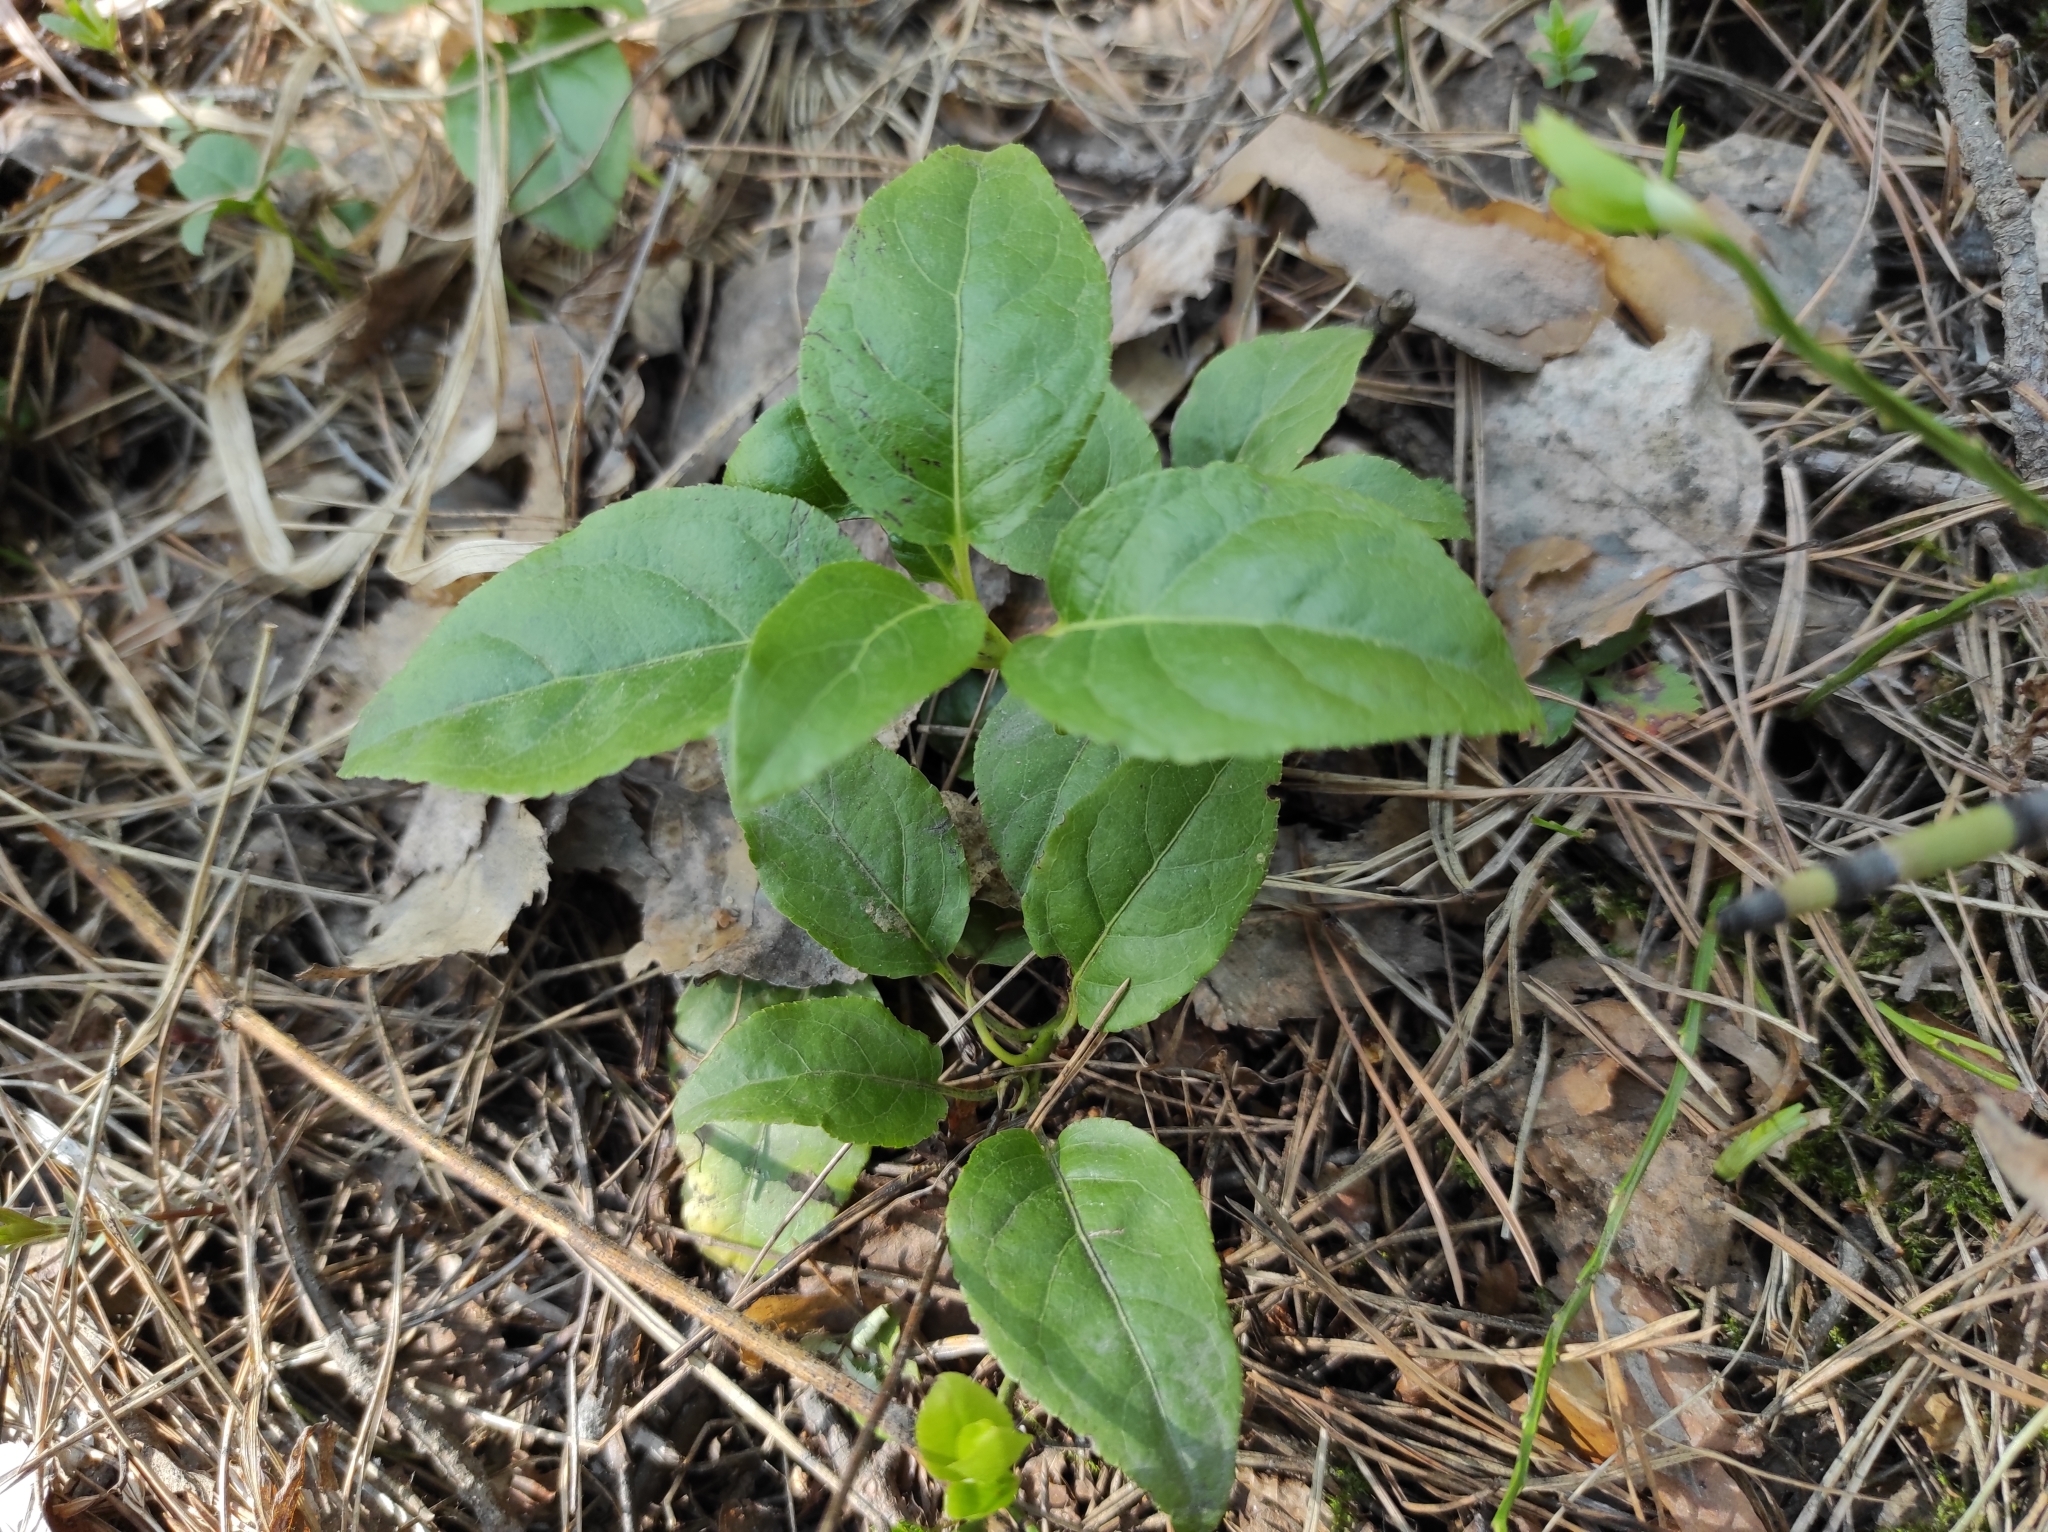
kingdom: Plantae
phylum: Tracheophyta
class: Magnoliopsida
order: Ericales
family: Ericaceae
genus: Orthilia
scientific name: Orthilia secunda
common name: One-sided orthilia
